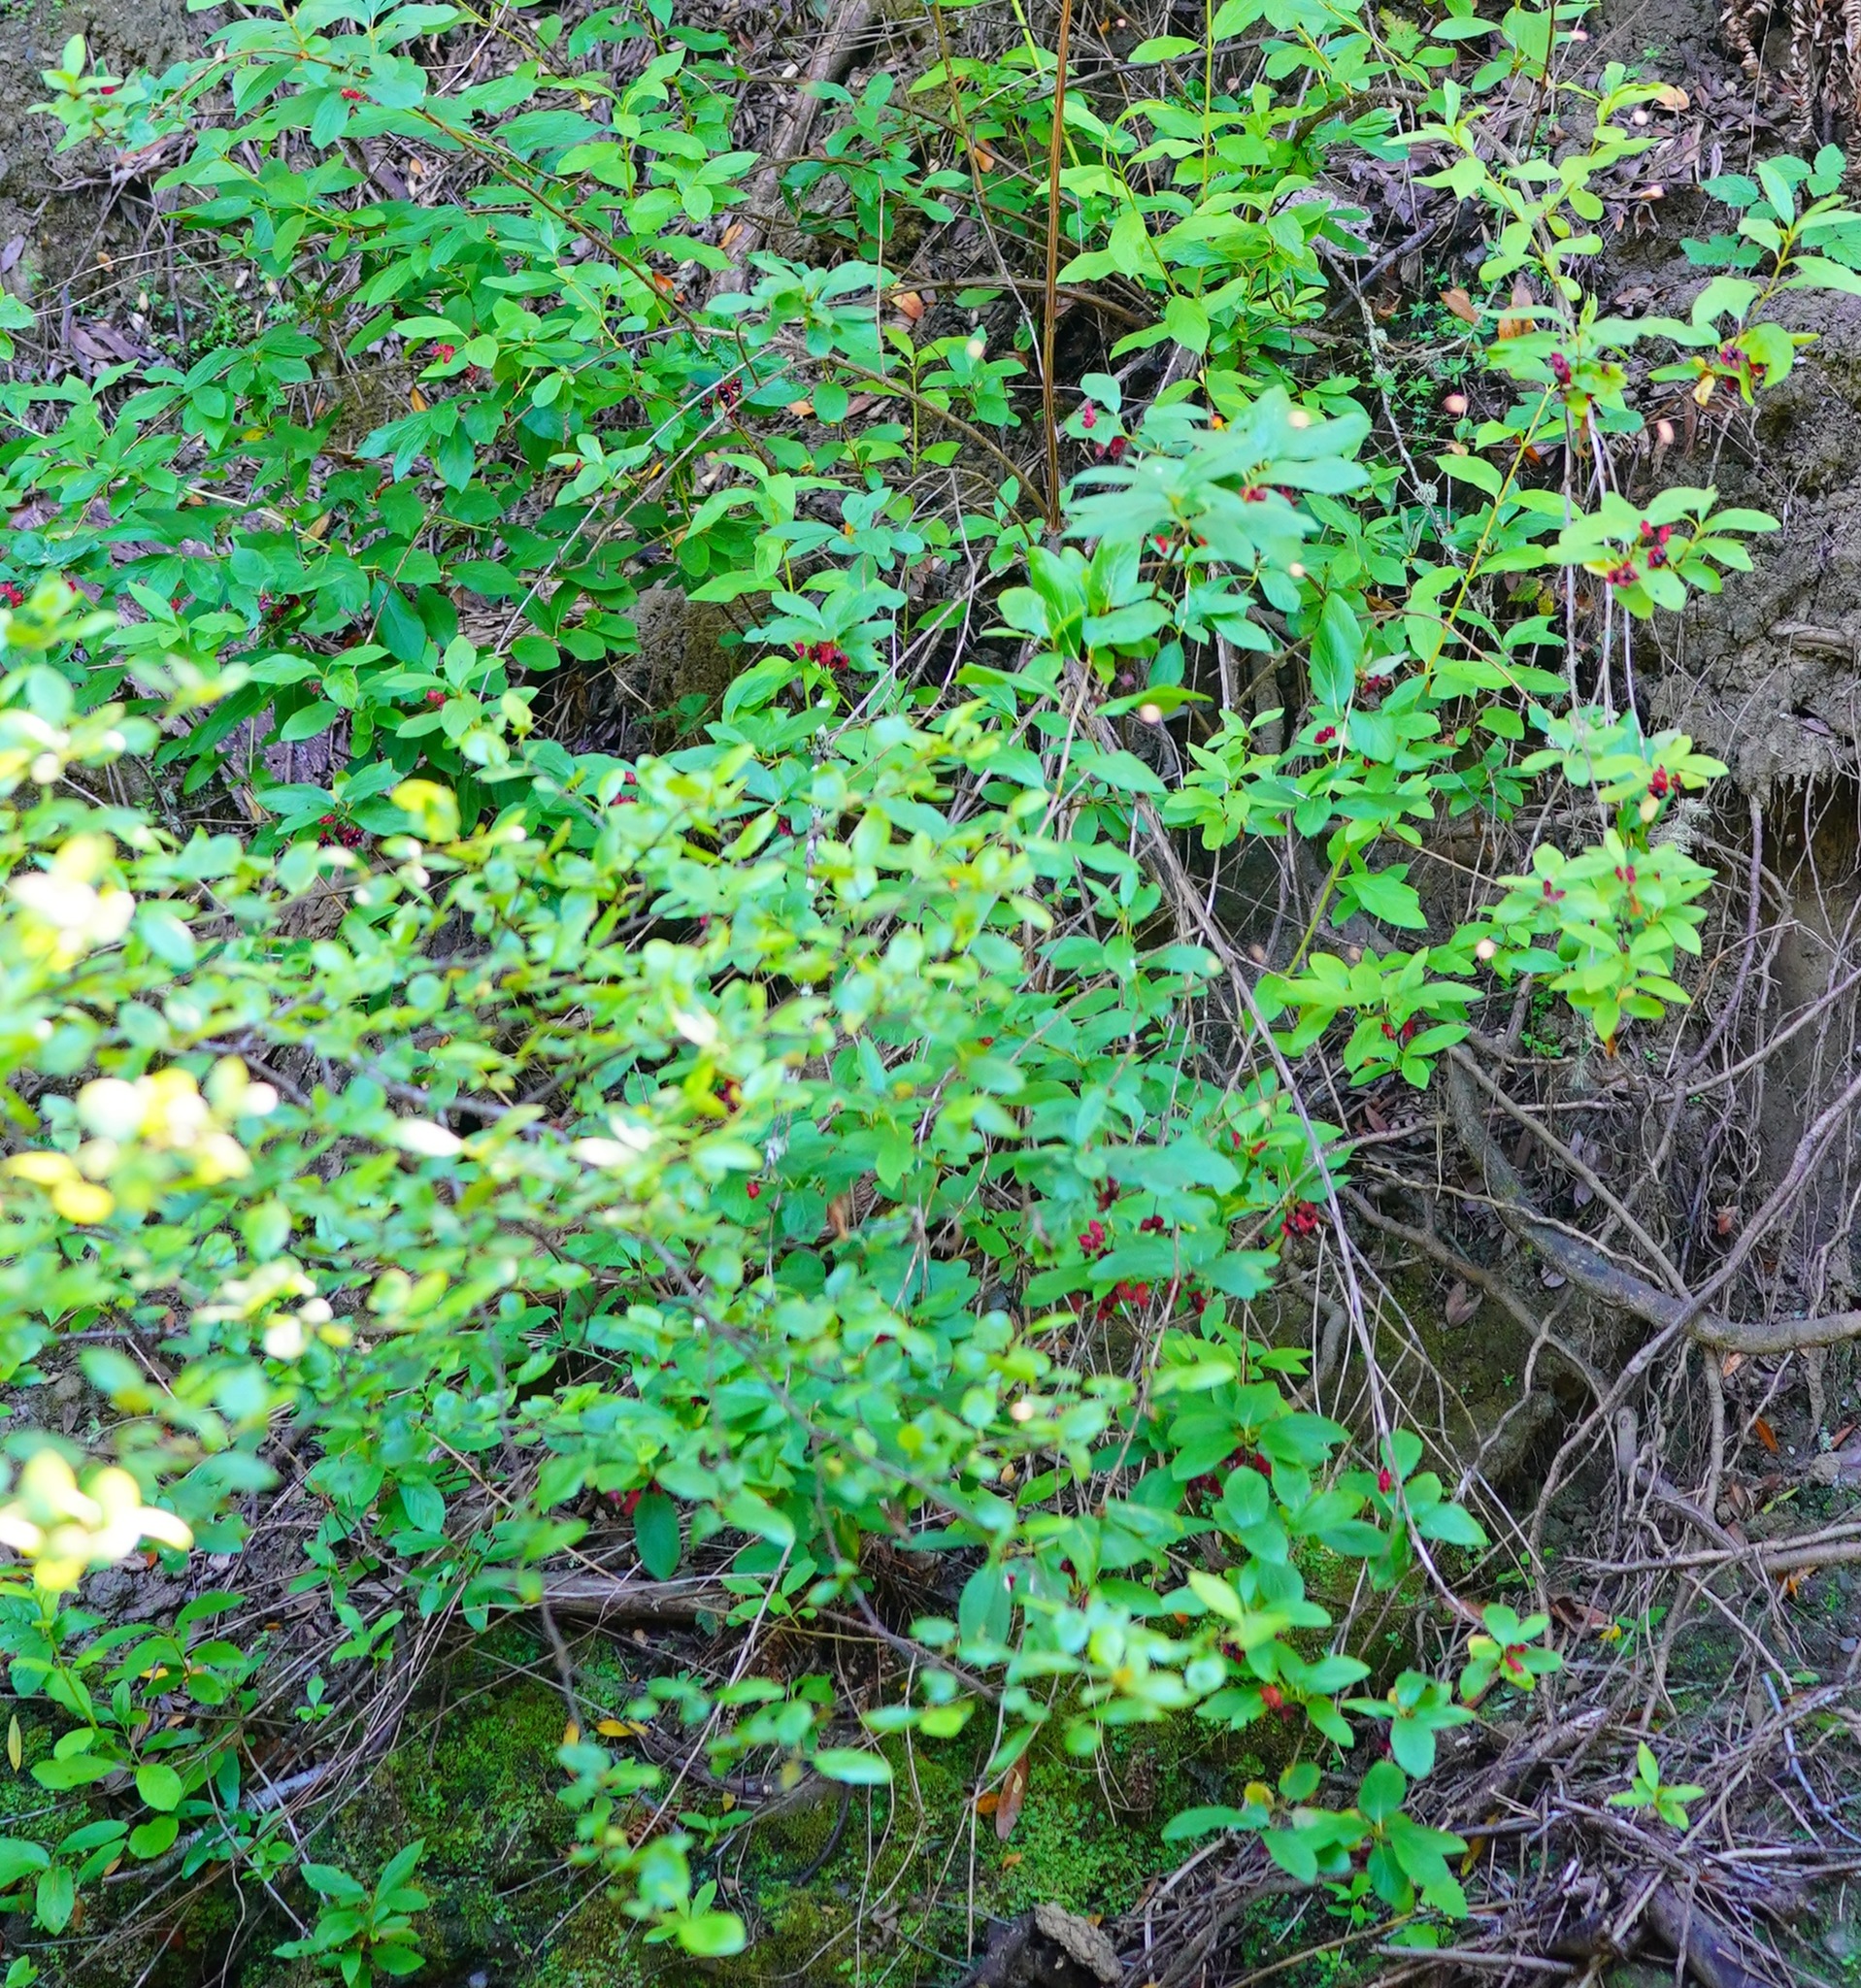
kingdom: Plantae
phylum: Tracheophyta
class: Magnoliopsida
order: Dipsacales
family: Caprifoliaceae
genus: Lonicera
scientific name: Lonicera involucrata
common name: Californian honeysuckle
